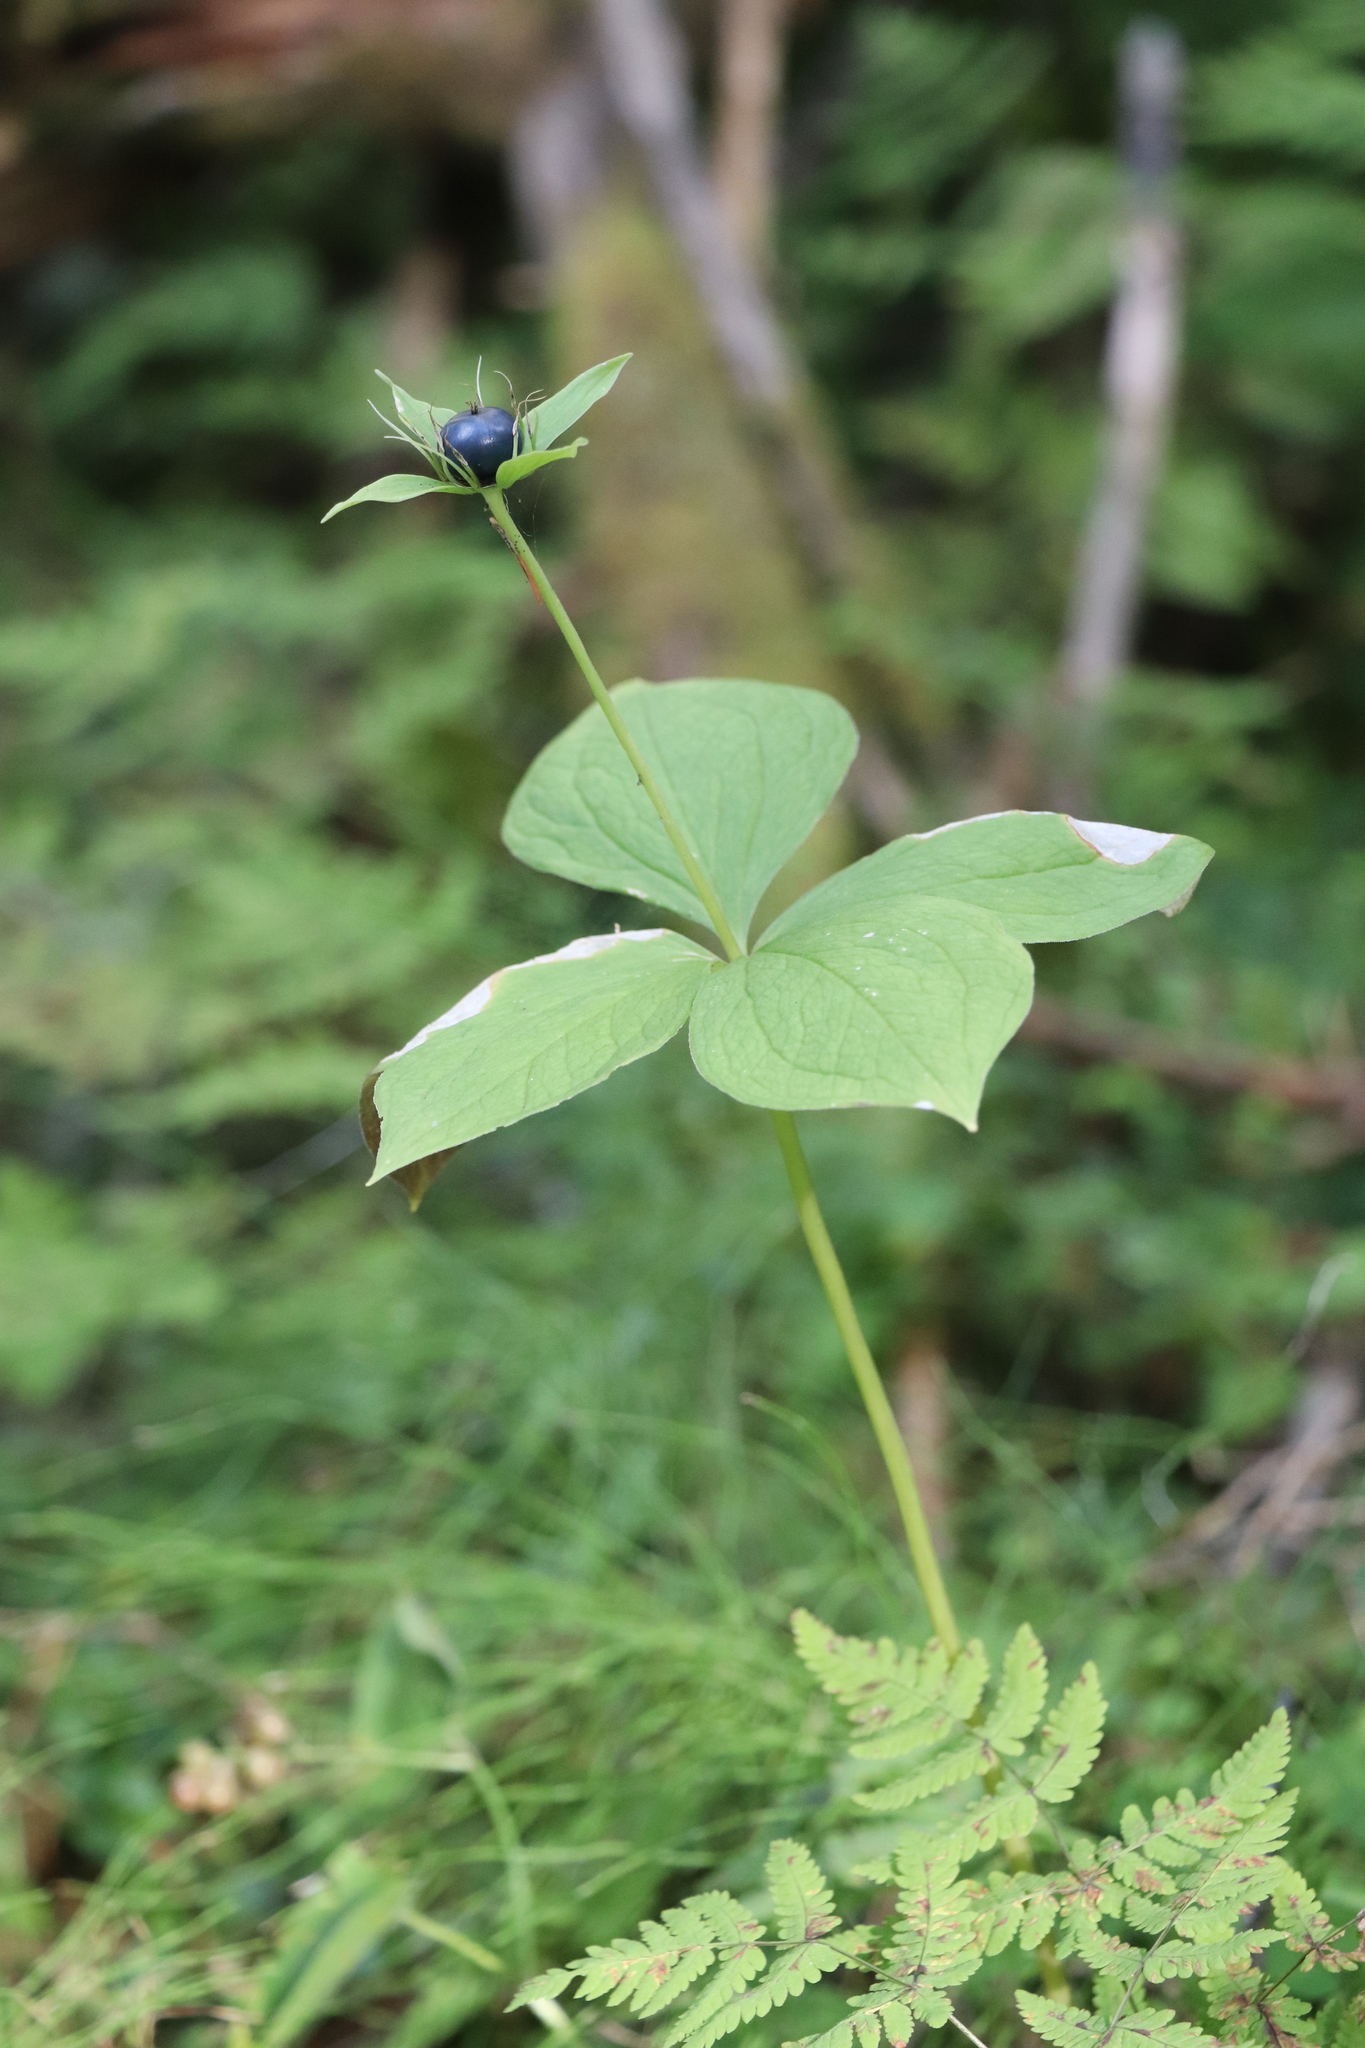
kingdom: Plantae
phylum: Tracheophyta
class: Liliopsida
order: Liliales
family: Melanthiaceae
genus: Paris
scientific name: Paris quadrifolia
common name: Herb-paris
